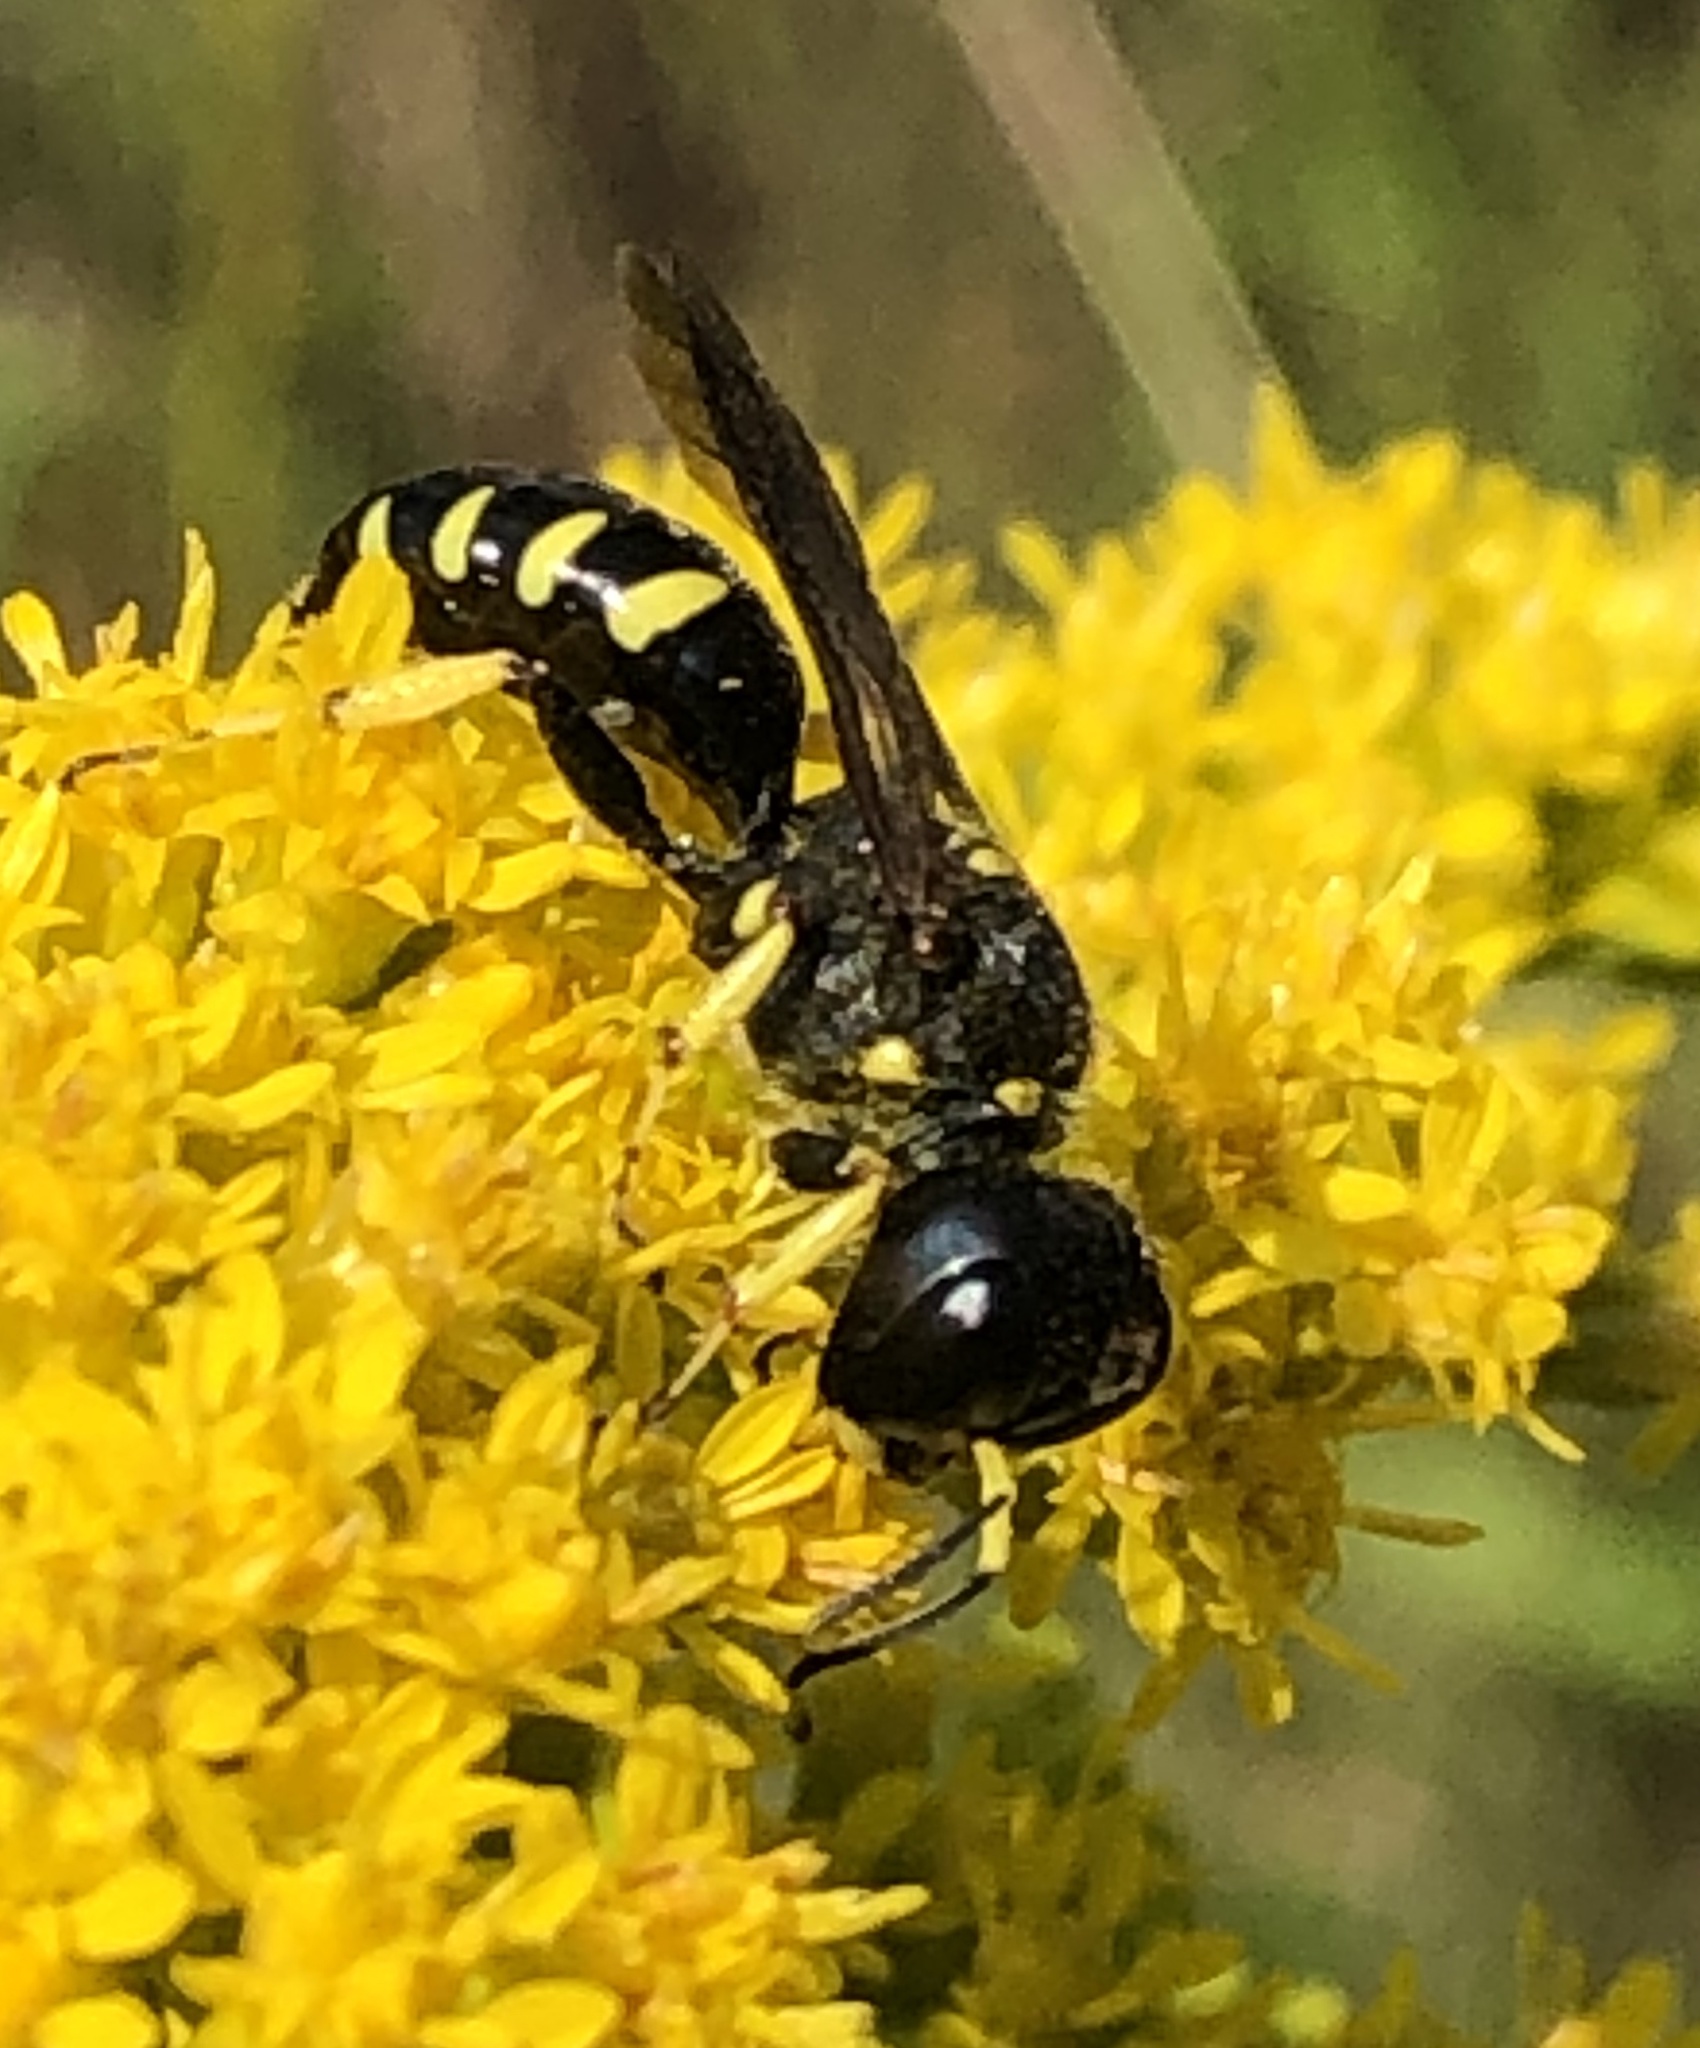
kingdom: Animalia
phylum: Arthropoda
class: Insecta
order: Hymenoptera
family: Crabronidae
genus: Ectemnius
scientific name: Ectemnius maculosus
